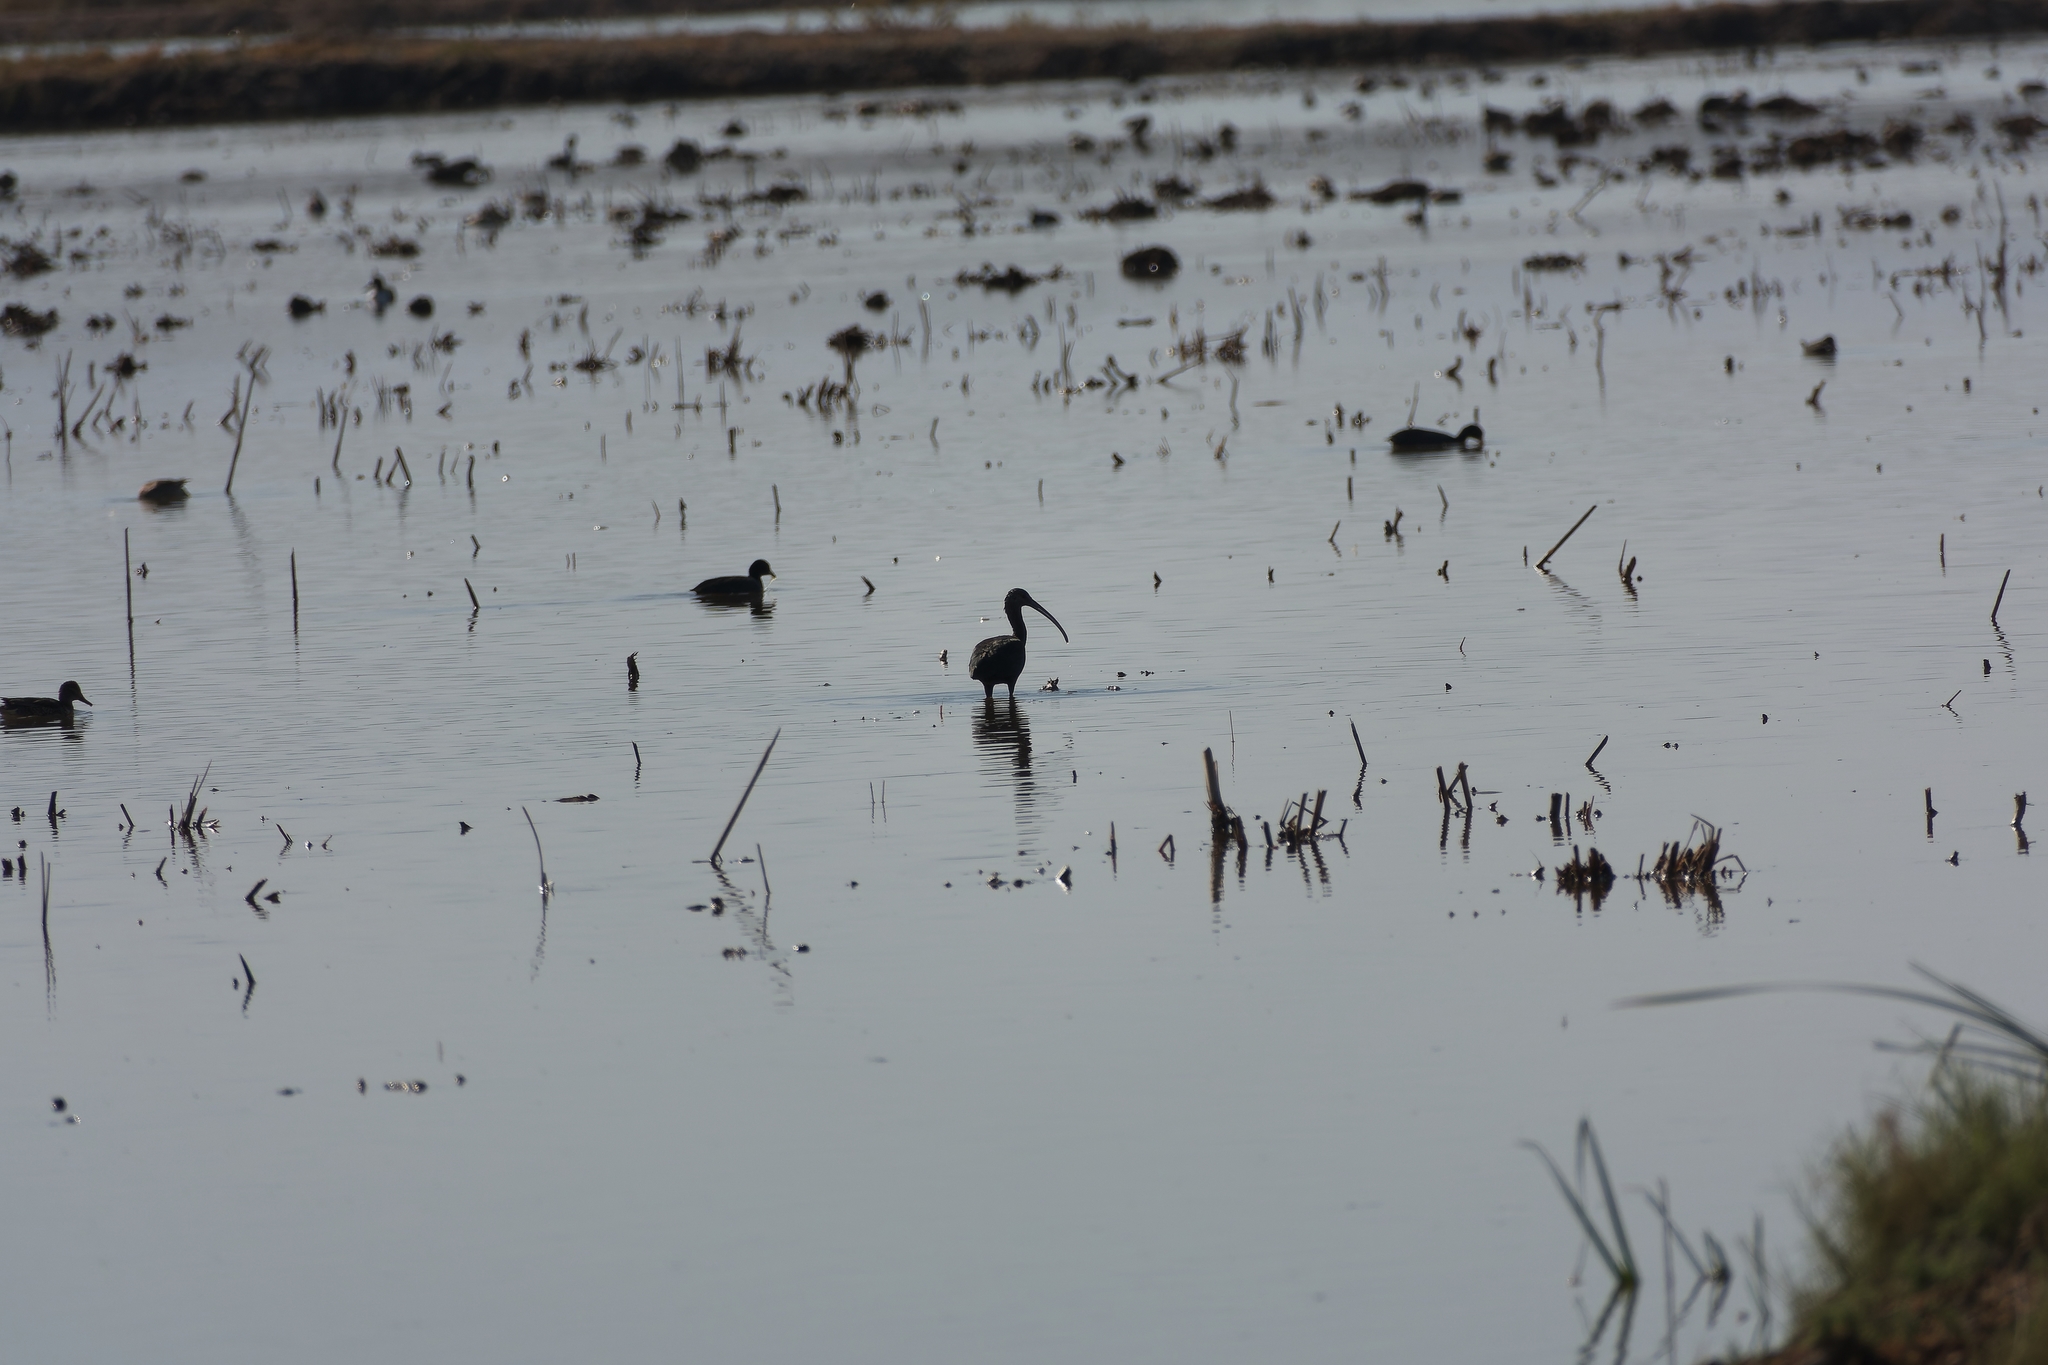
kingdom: Animalia
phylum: Chordata
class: Aves
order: Pelecaniformes
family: Threskiornithidae
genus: Plegadis
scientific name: Plegadis chihi
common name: White-faced ibis
